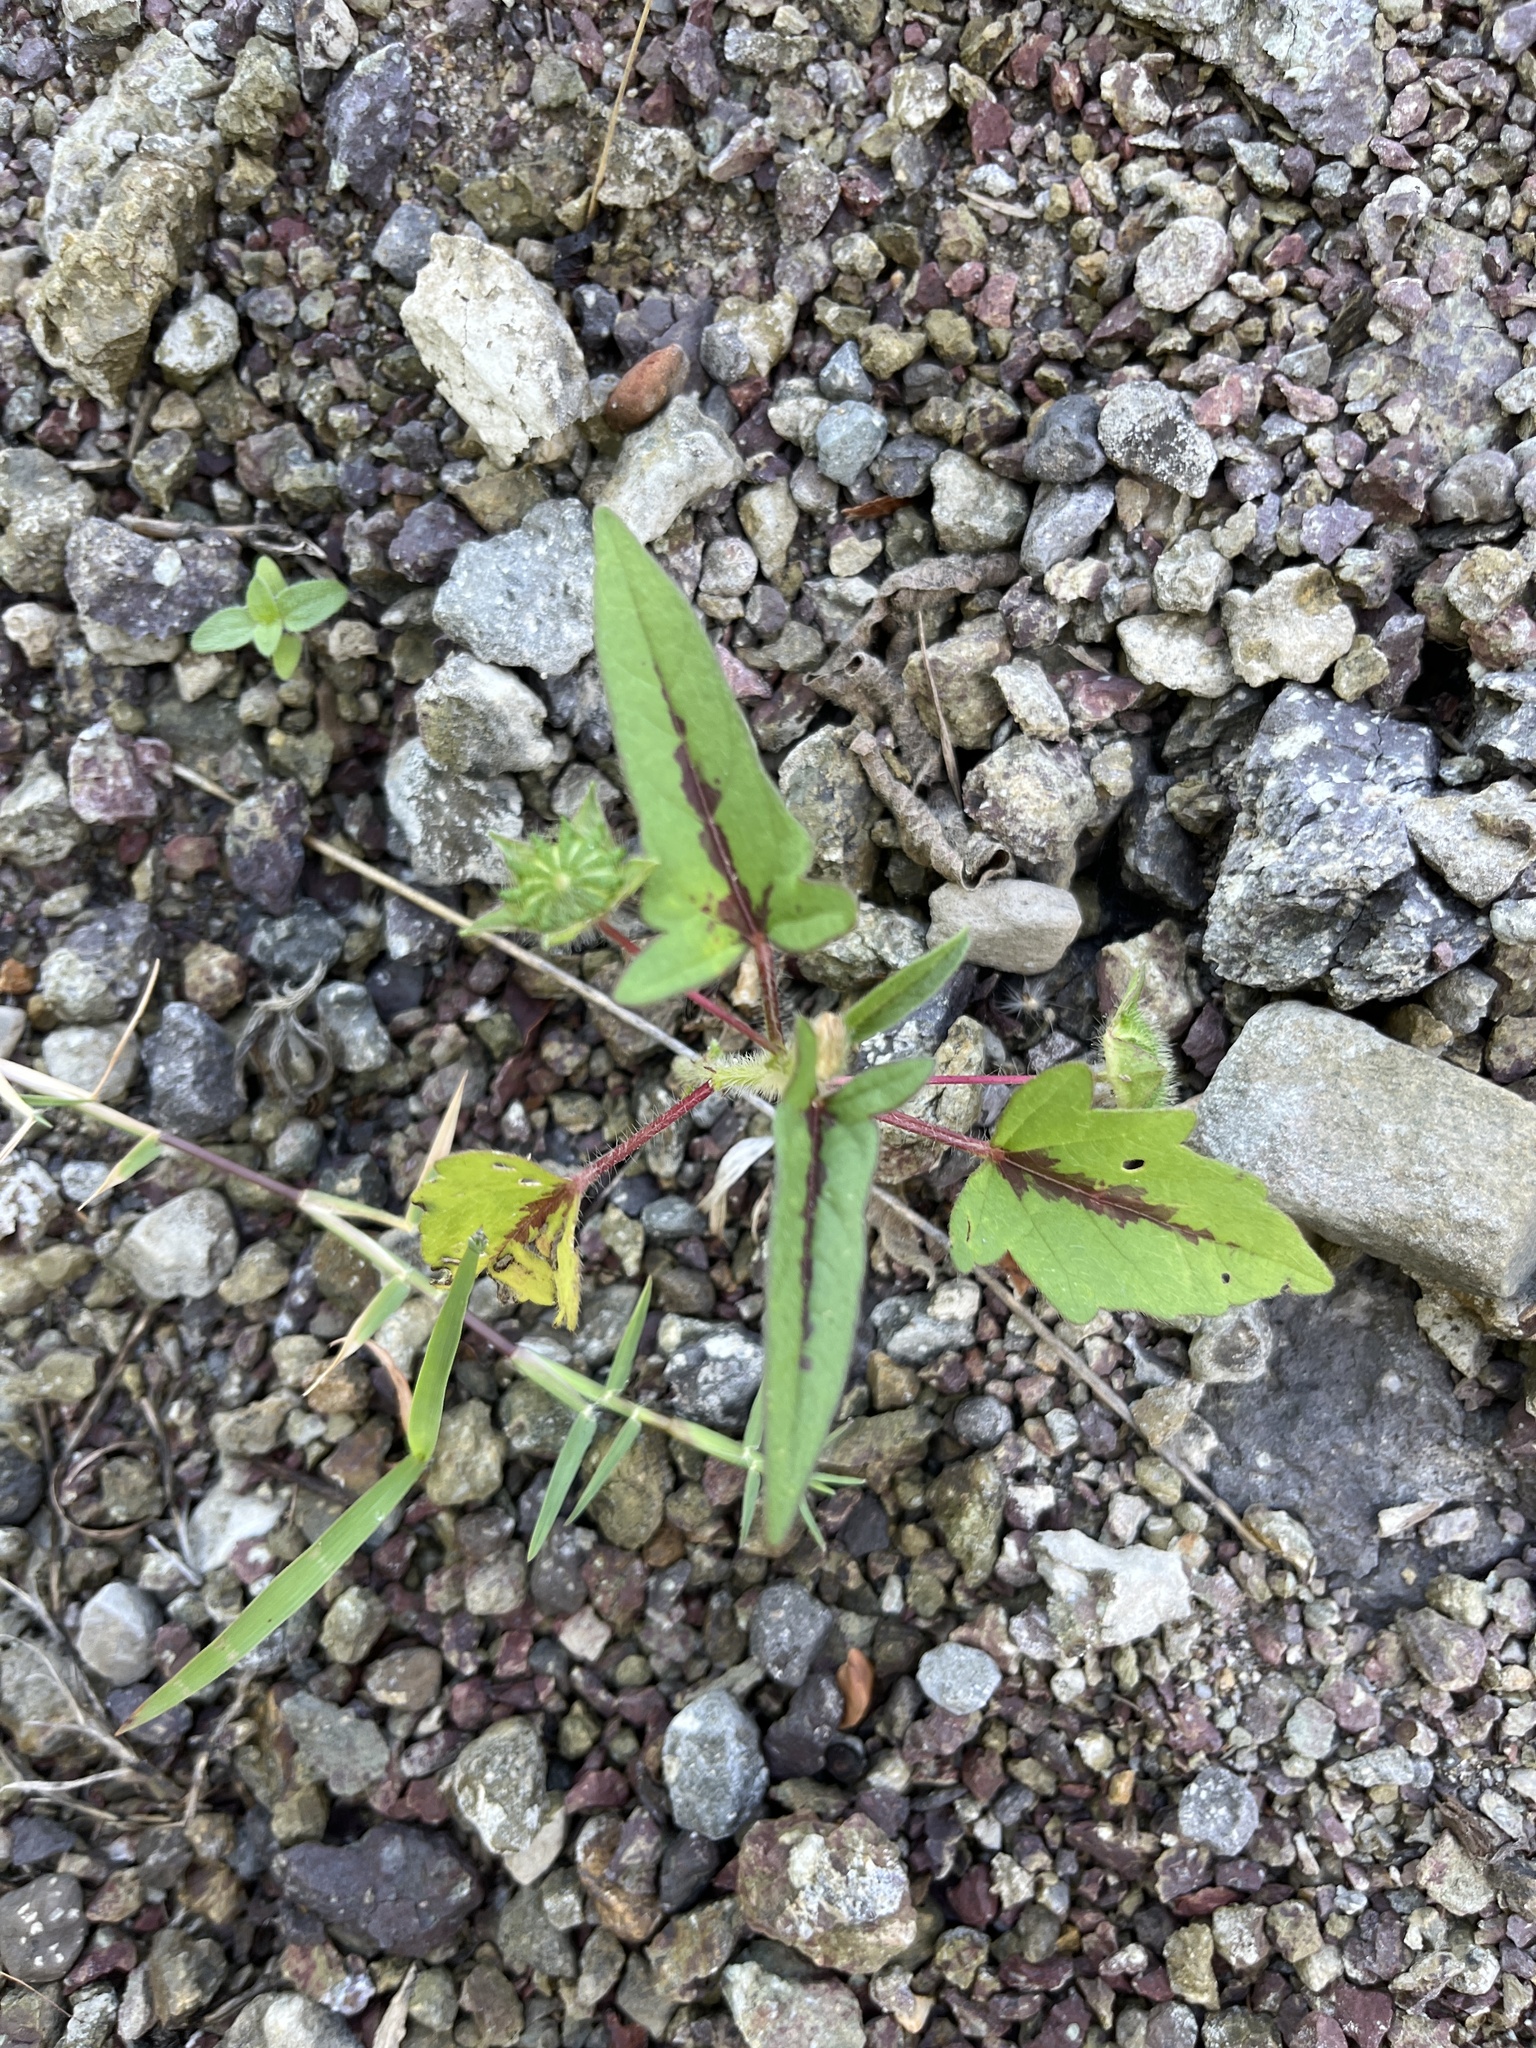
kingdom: Plantae
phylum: Tracheophyta
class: Magnoliopsida
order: Malvales
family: Malvaceae
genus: Anoda
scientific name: Anoda cristata
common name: Spurred anoda
